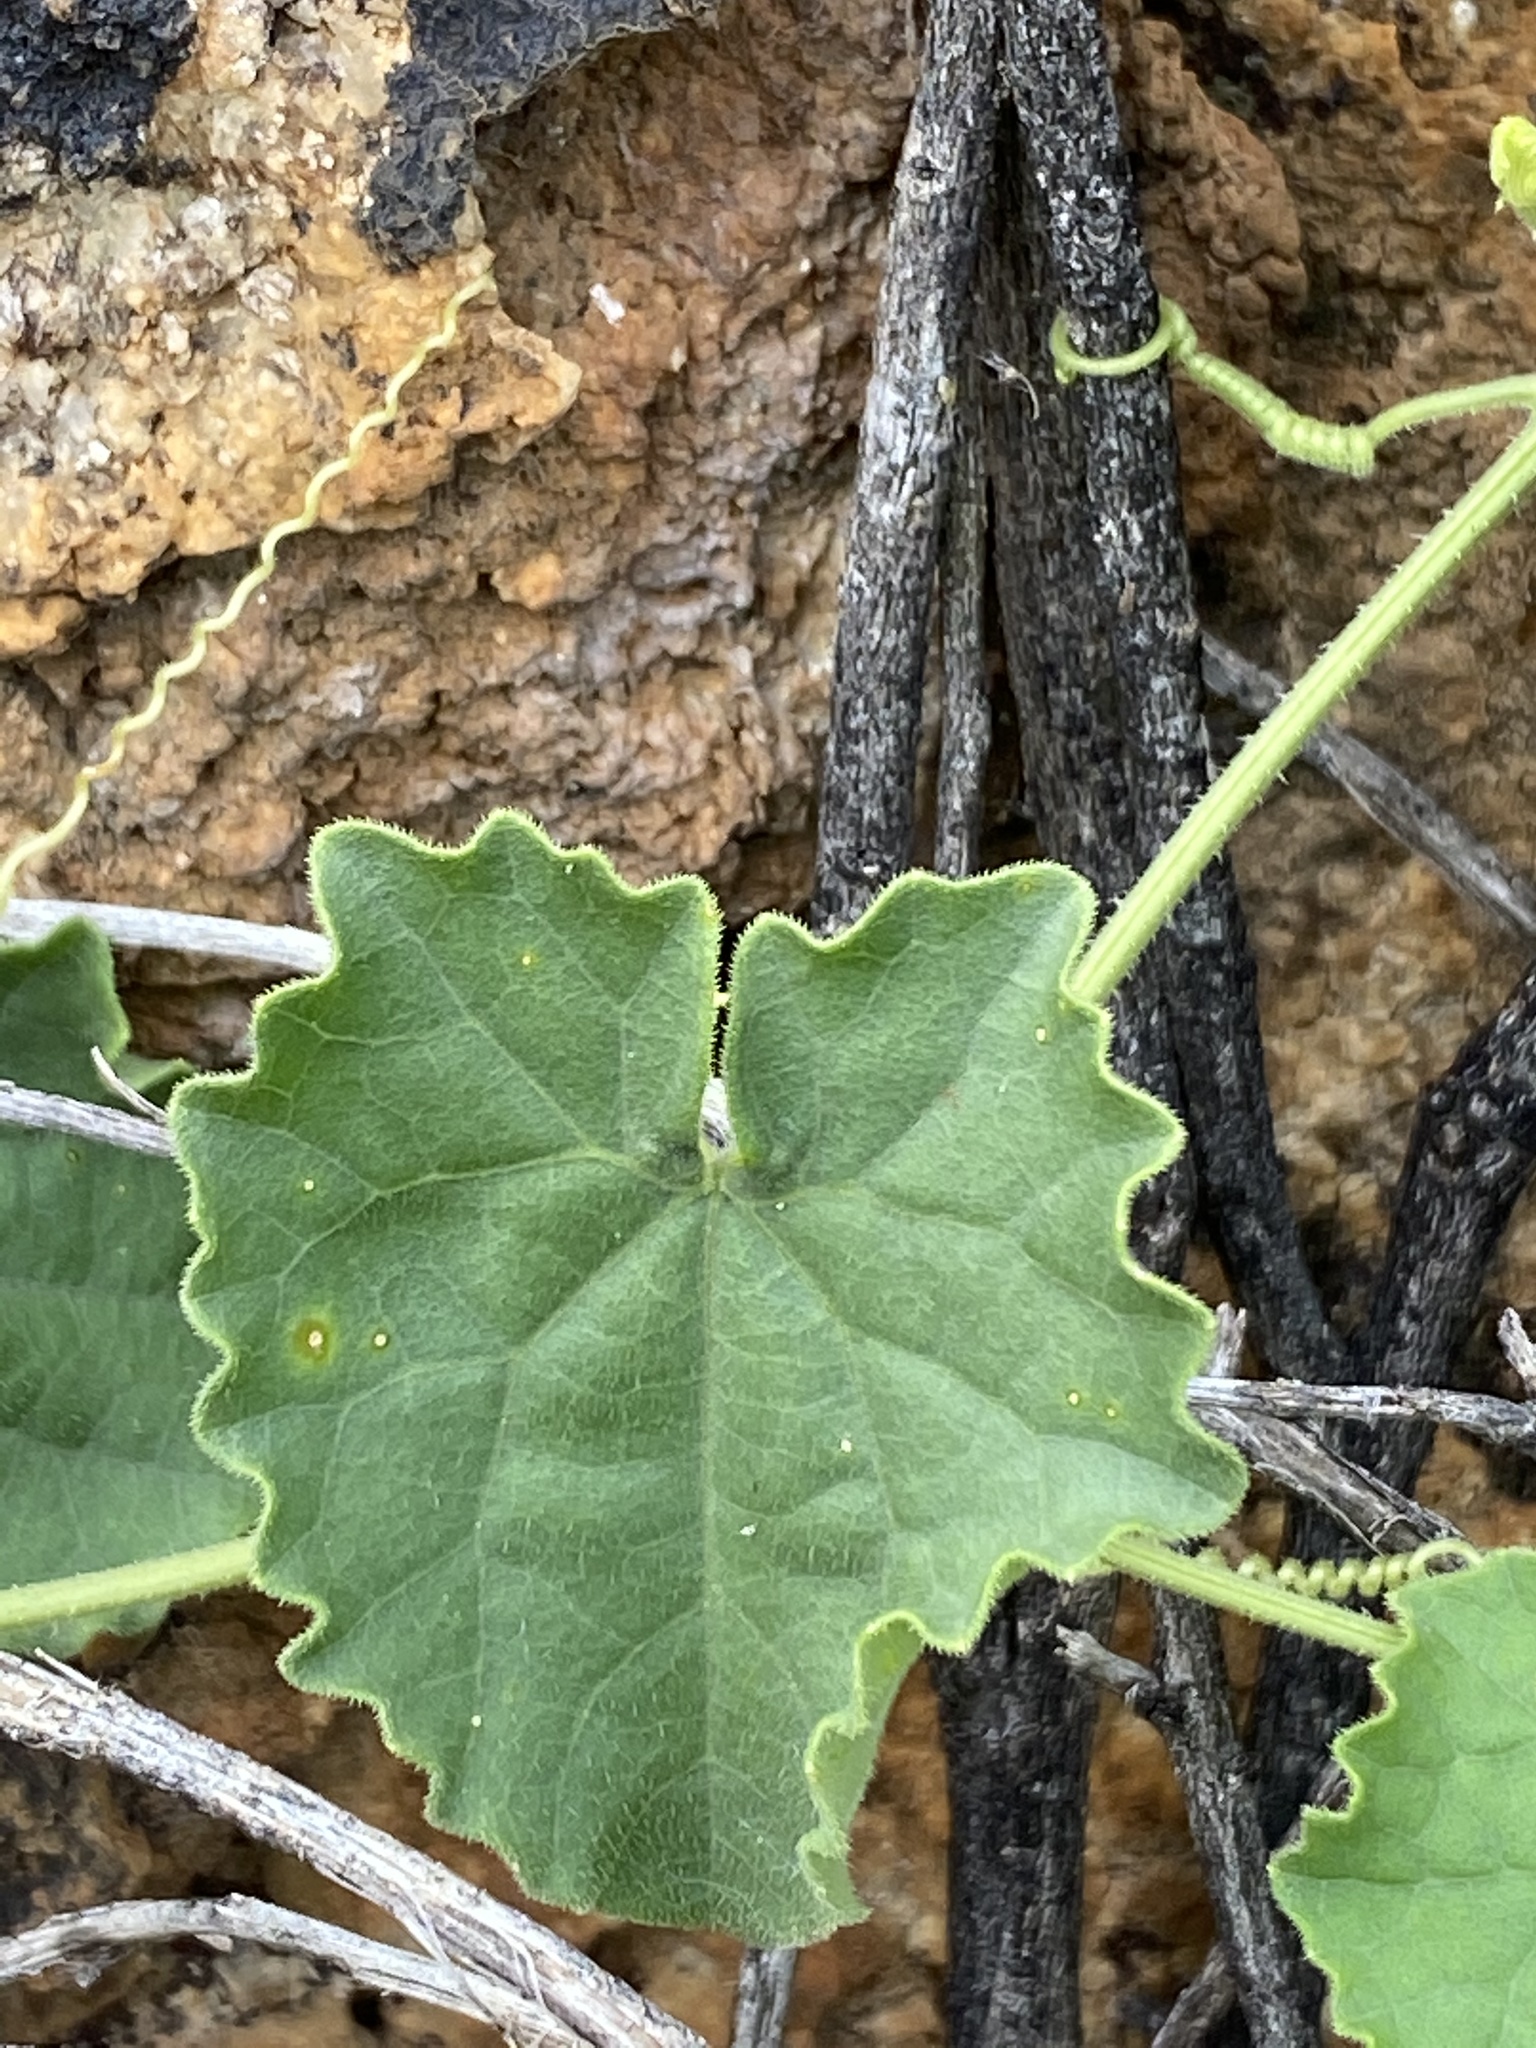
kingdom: Plantae
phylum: Tracheophyta
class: Magnoliopsida
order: Cucurbitales
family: Cucurbitaceae
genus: Cucumis
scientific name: Cucumis sagittatus
